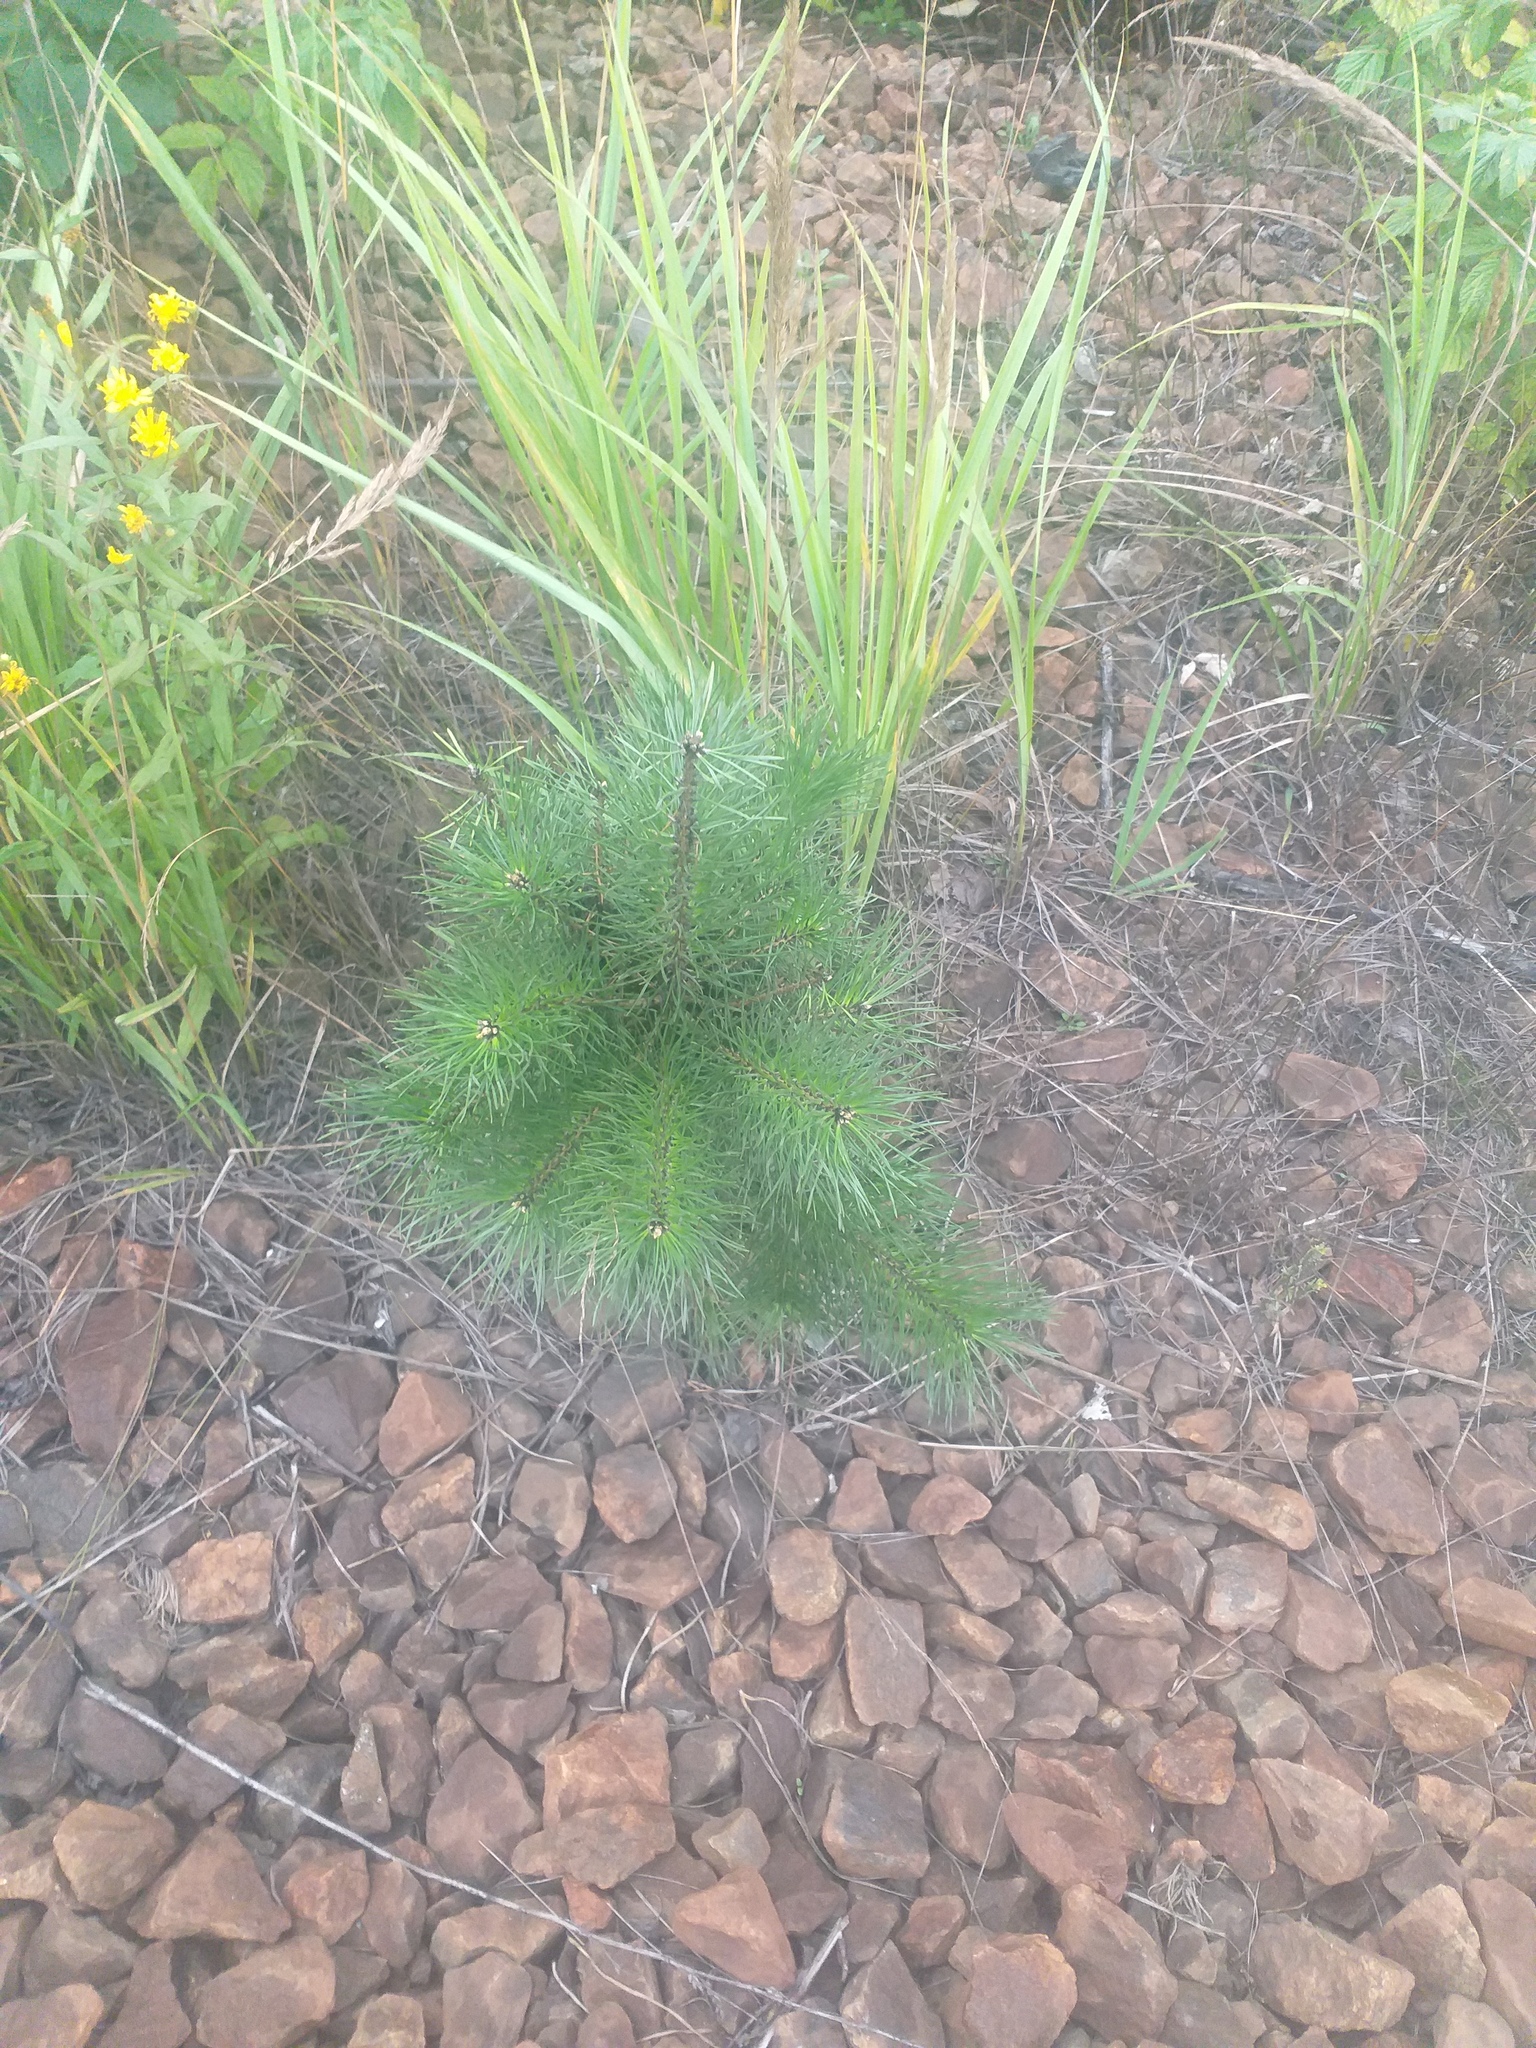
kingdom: Plantae
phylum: Tracheophyta
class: Pinopsida
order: Pinales
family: Pinaceae
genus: Pinus
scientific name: Pinus sylvestris
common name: Scots pine
